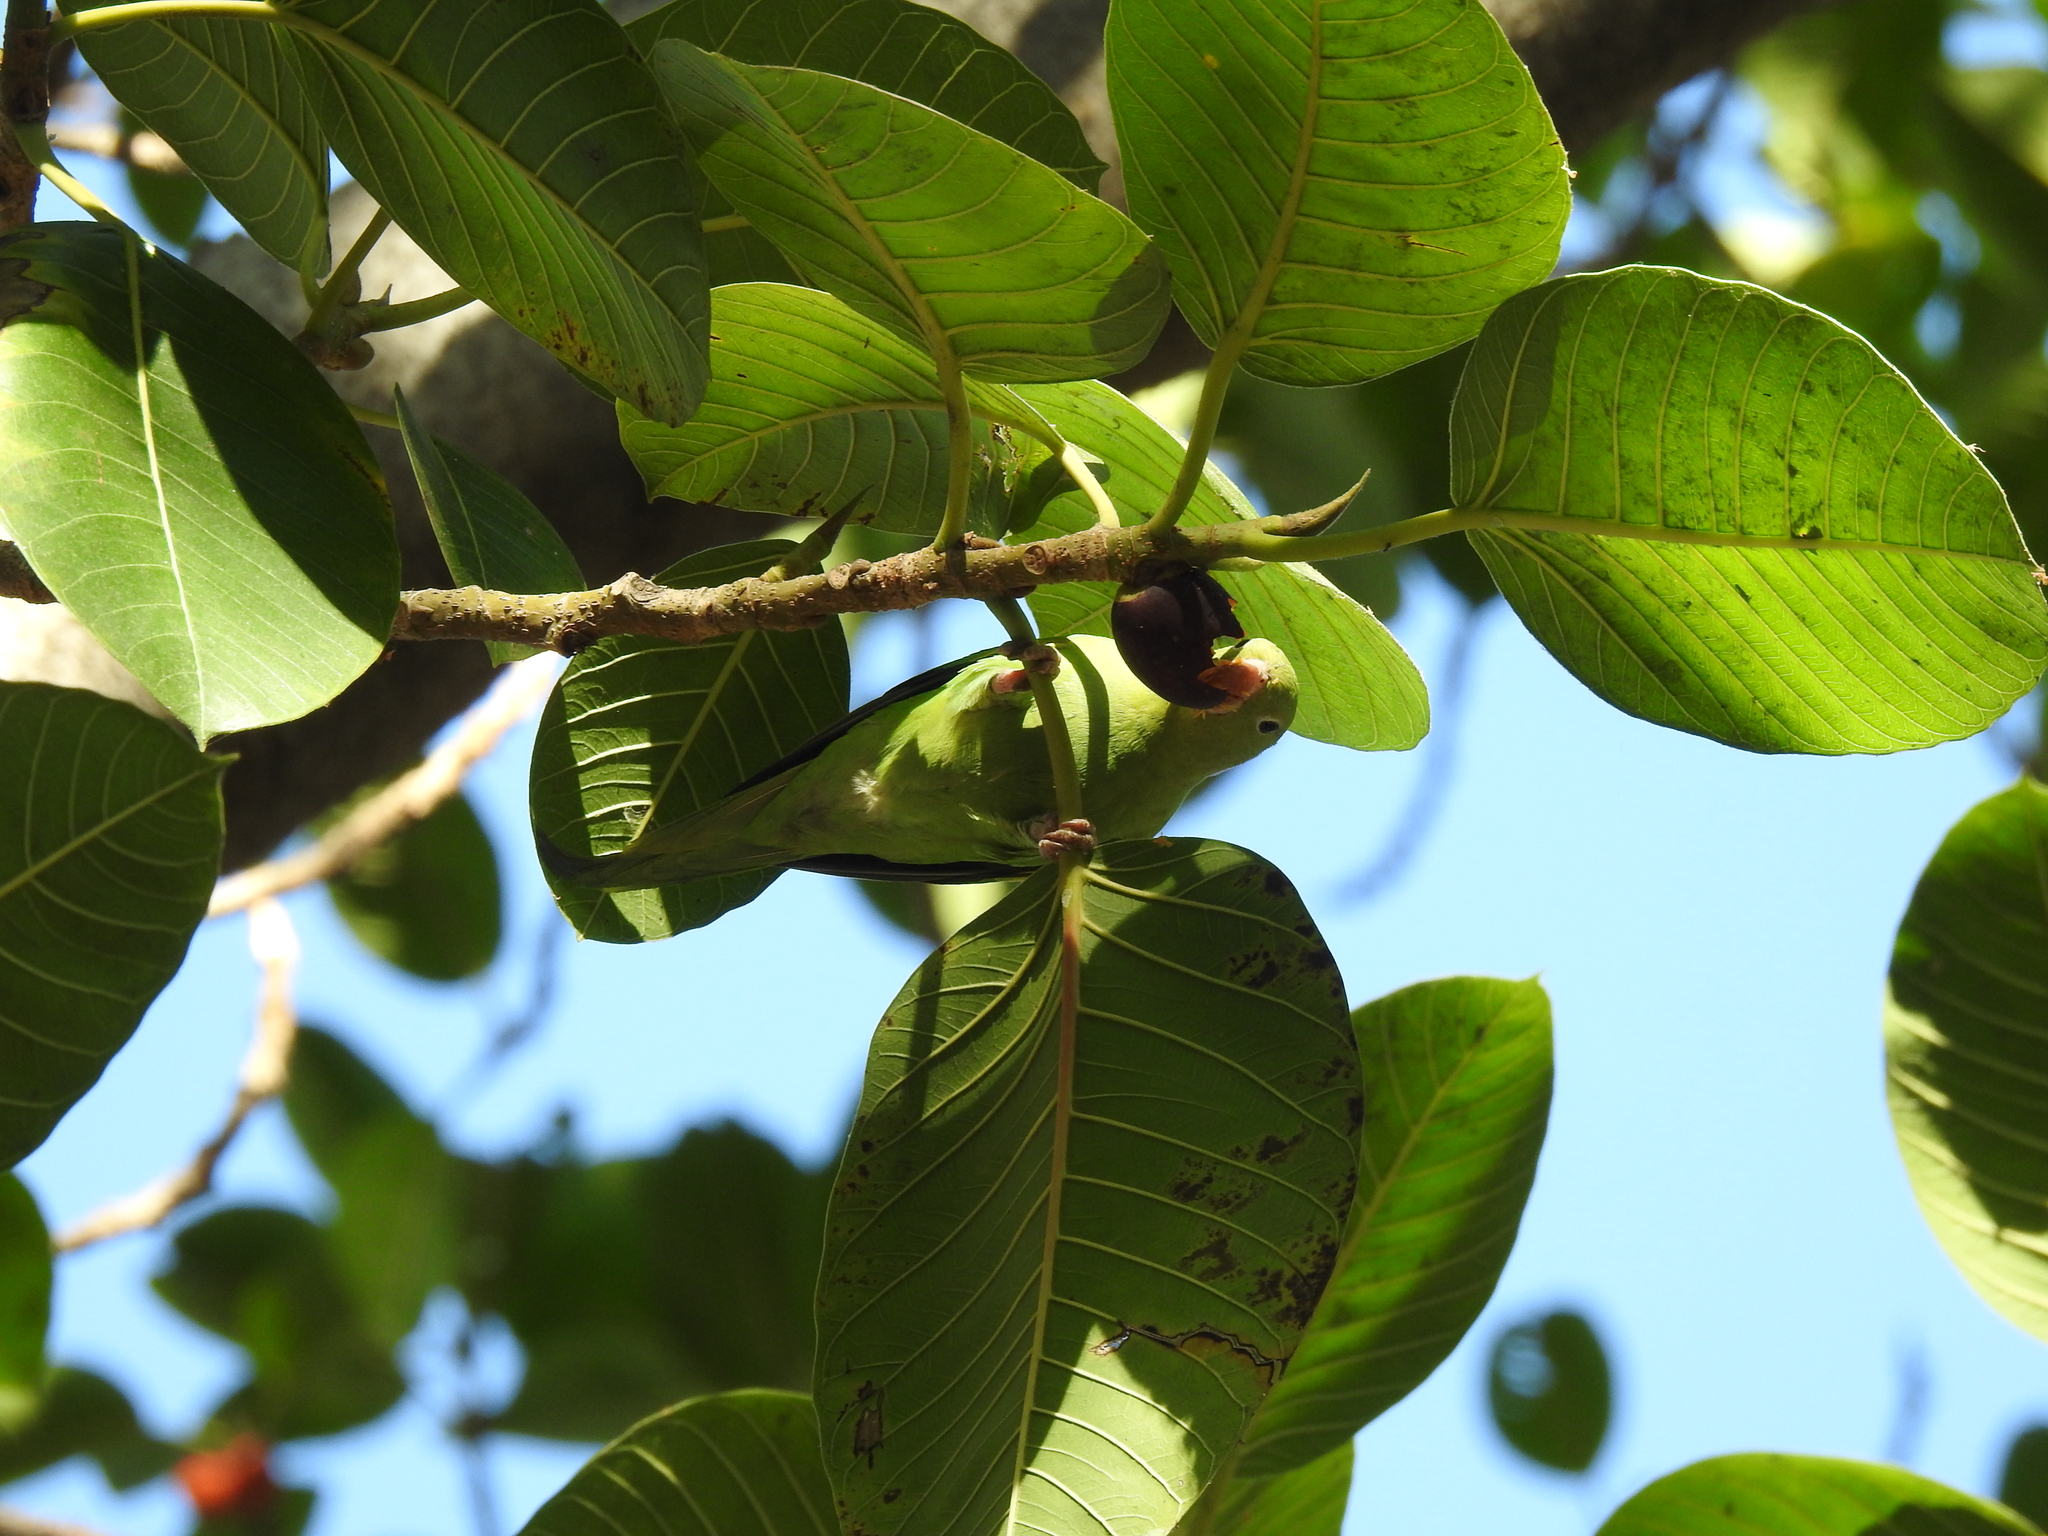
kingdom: Animalia
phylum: Chordata
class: Aves
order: Psittaciformes
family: Psittacidae
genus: Brotogeris
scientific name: Brotogeris chiriri
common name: Yellow-chevroned parakeet
